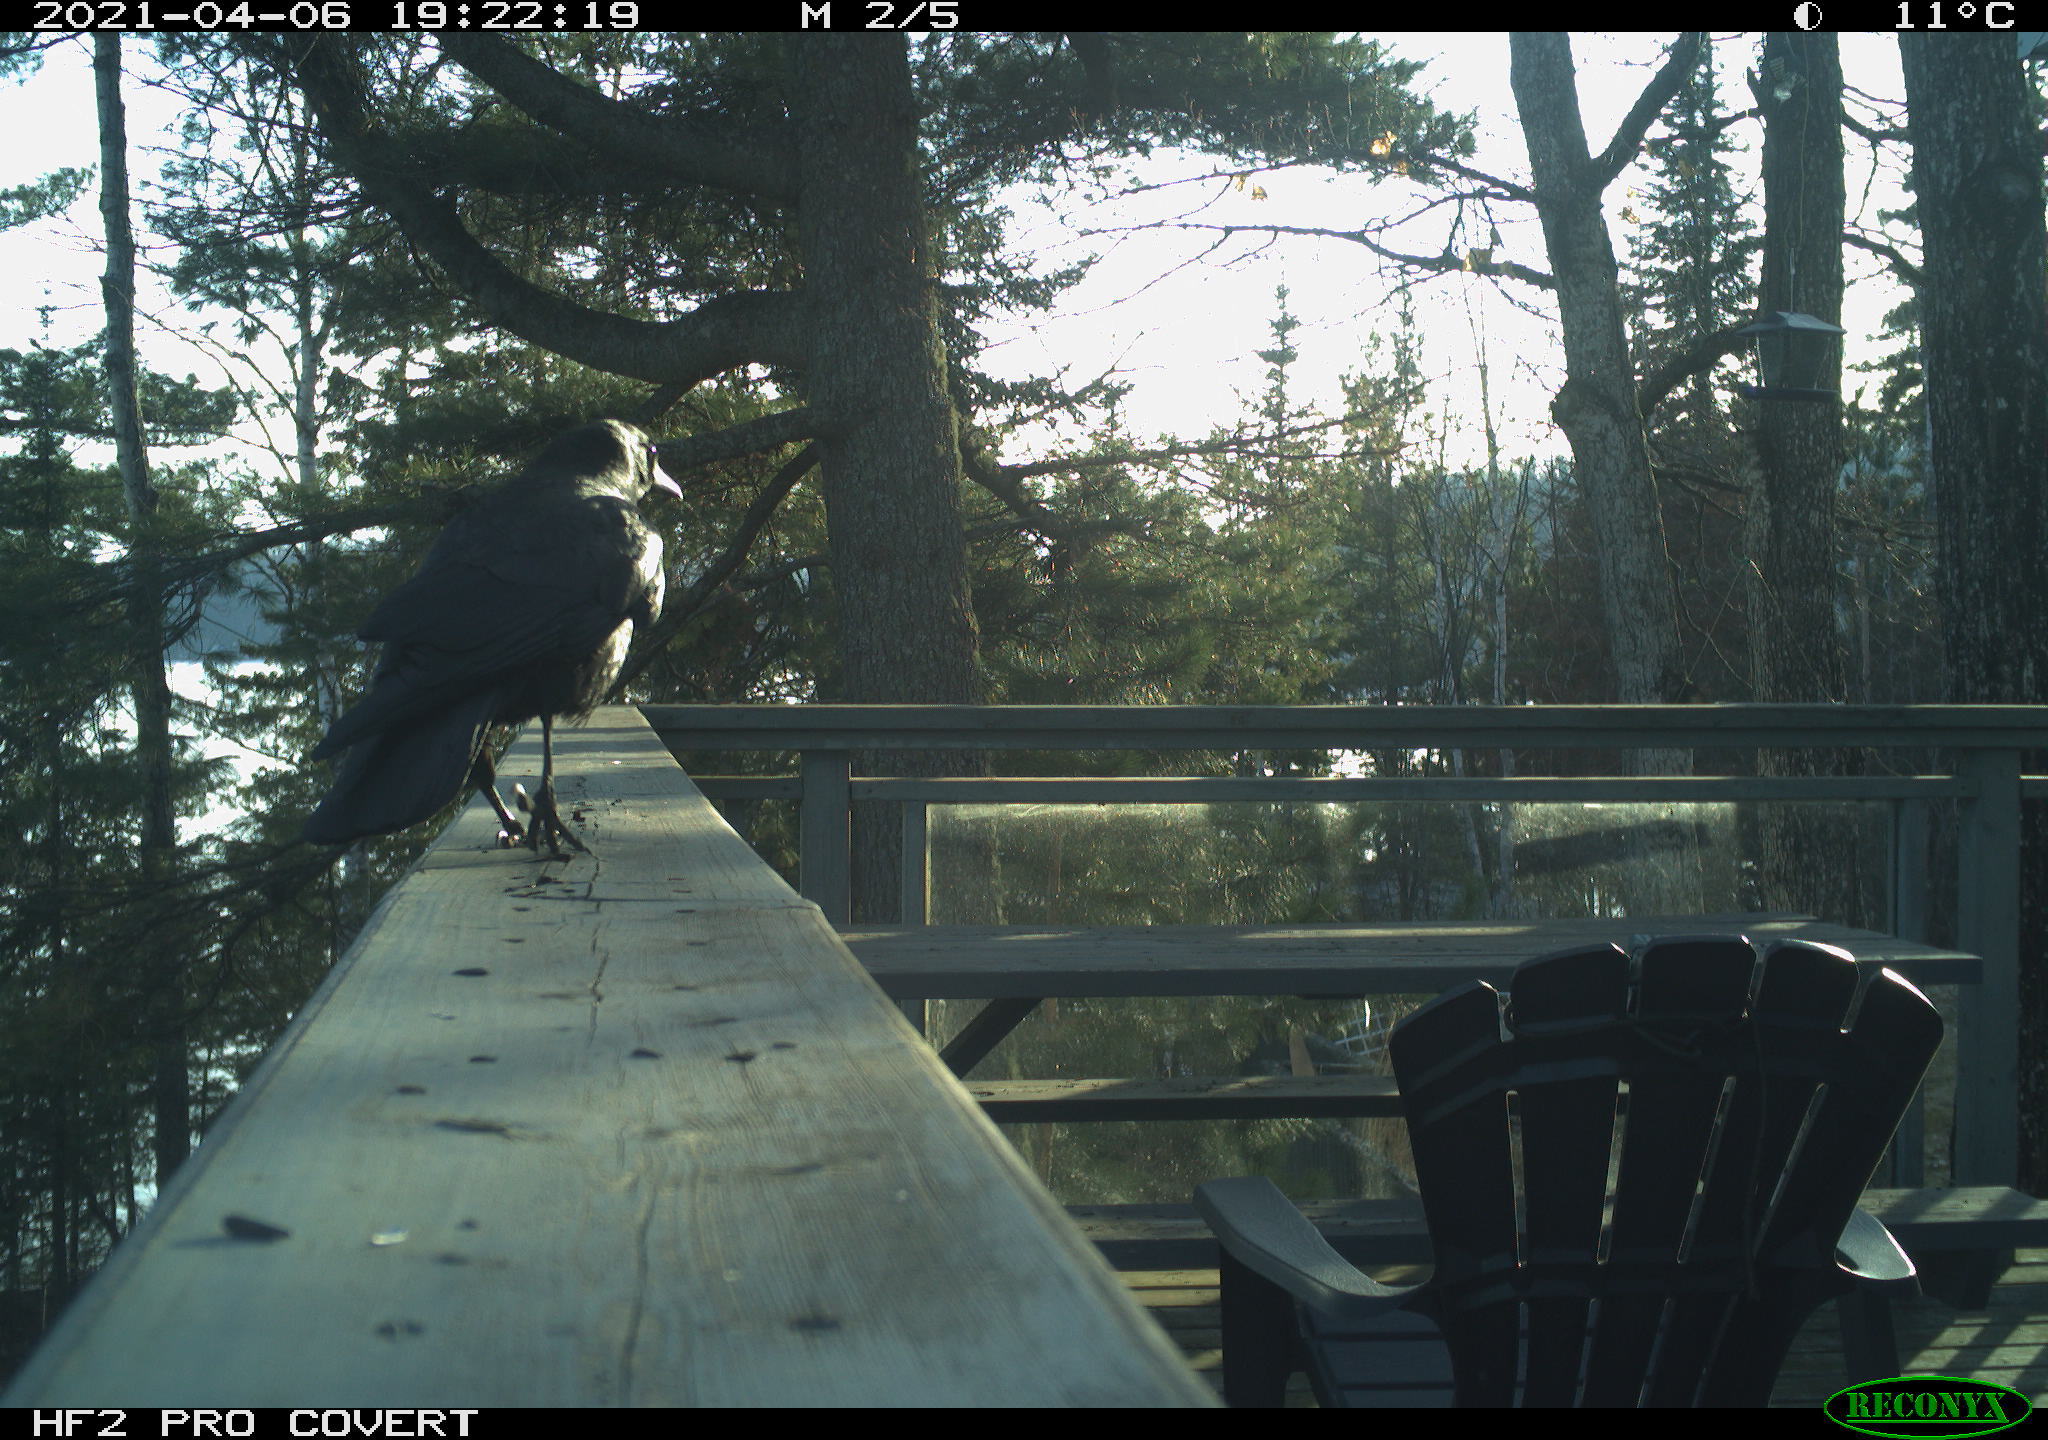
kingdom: Animalia
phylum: Chordata
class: Aves
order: Passeriformes
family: Corvidae
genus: Corvus
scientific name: Corvus brachyrhynchos
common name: American crow
